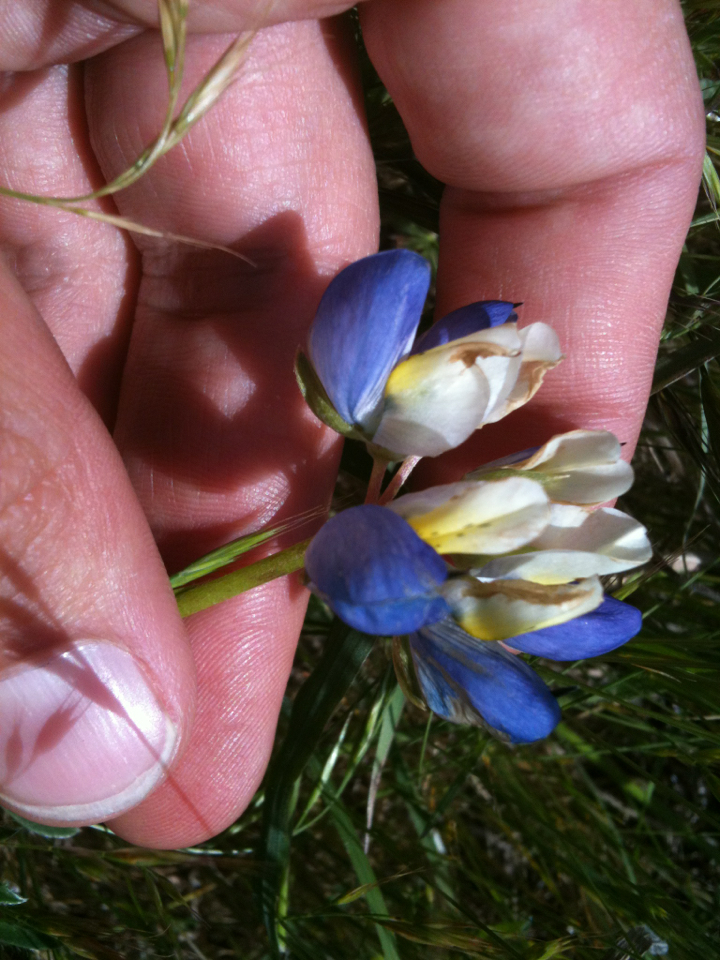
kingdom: Plantae
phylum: Tracheophyta
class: Magnoliopsida
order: Fabales
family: Fabaceae
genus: Lupinus
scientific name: Lupinus variicolor
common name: Lindley's varied lupine
